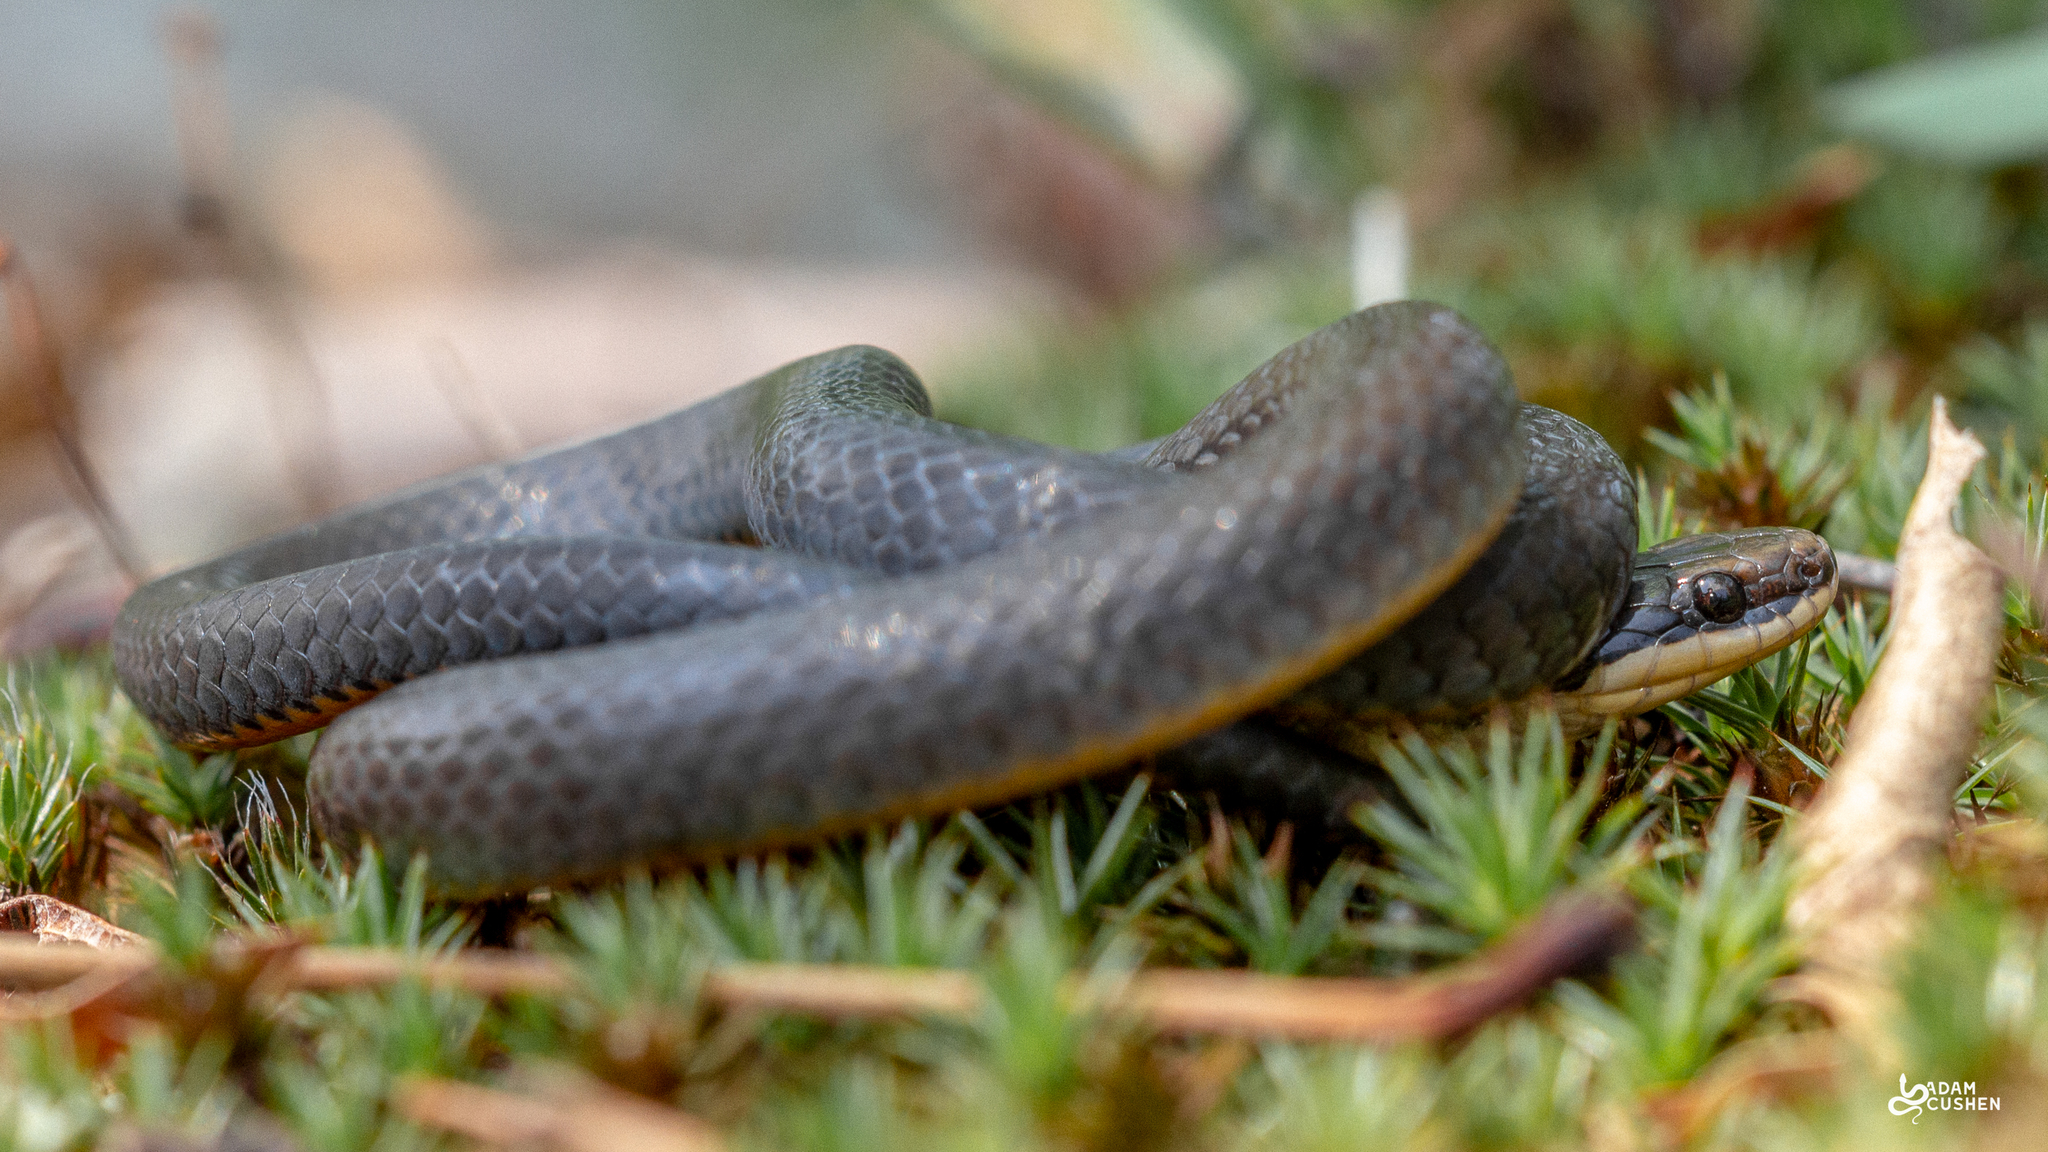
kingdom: Animalia
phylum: Chordata
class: Squamata
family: Colubridae
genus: Diadophis
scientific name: Diadophis punctatus
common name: Ringneck snake
